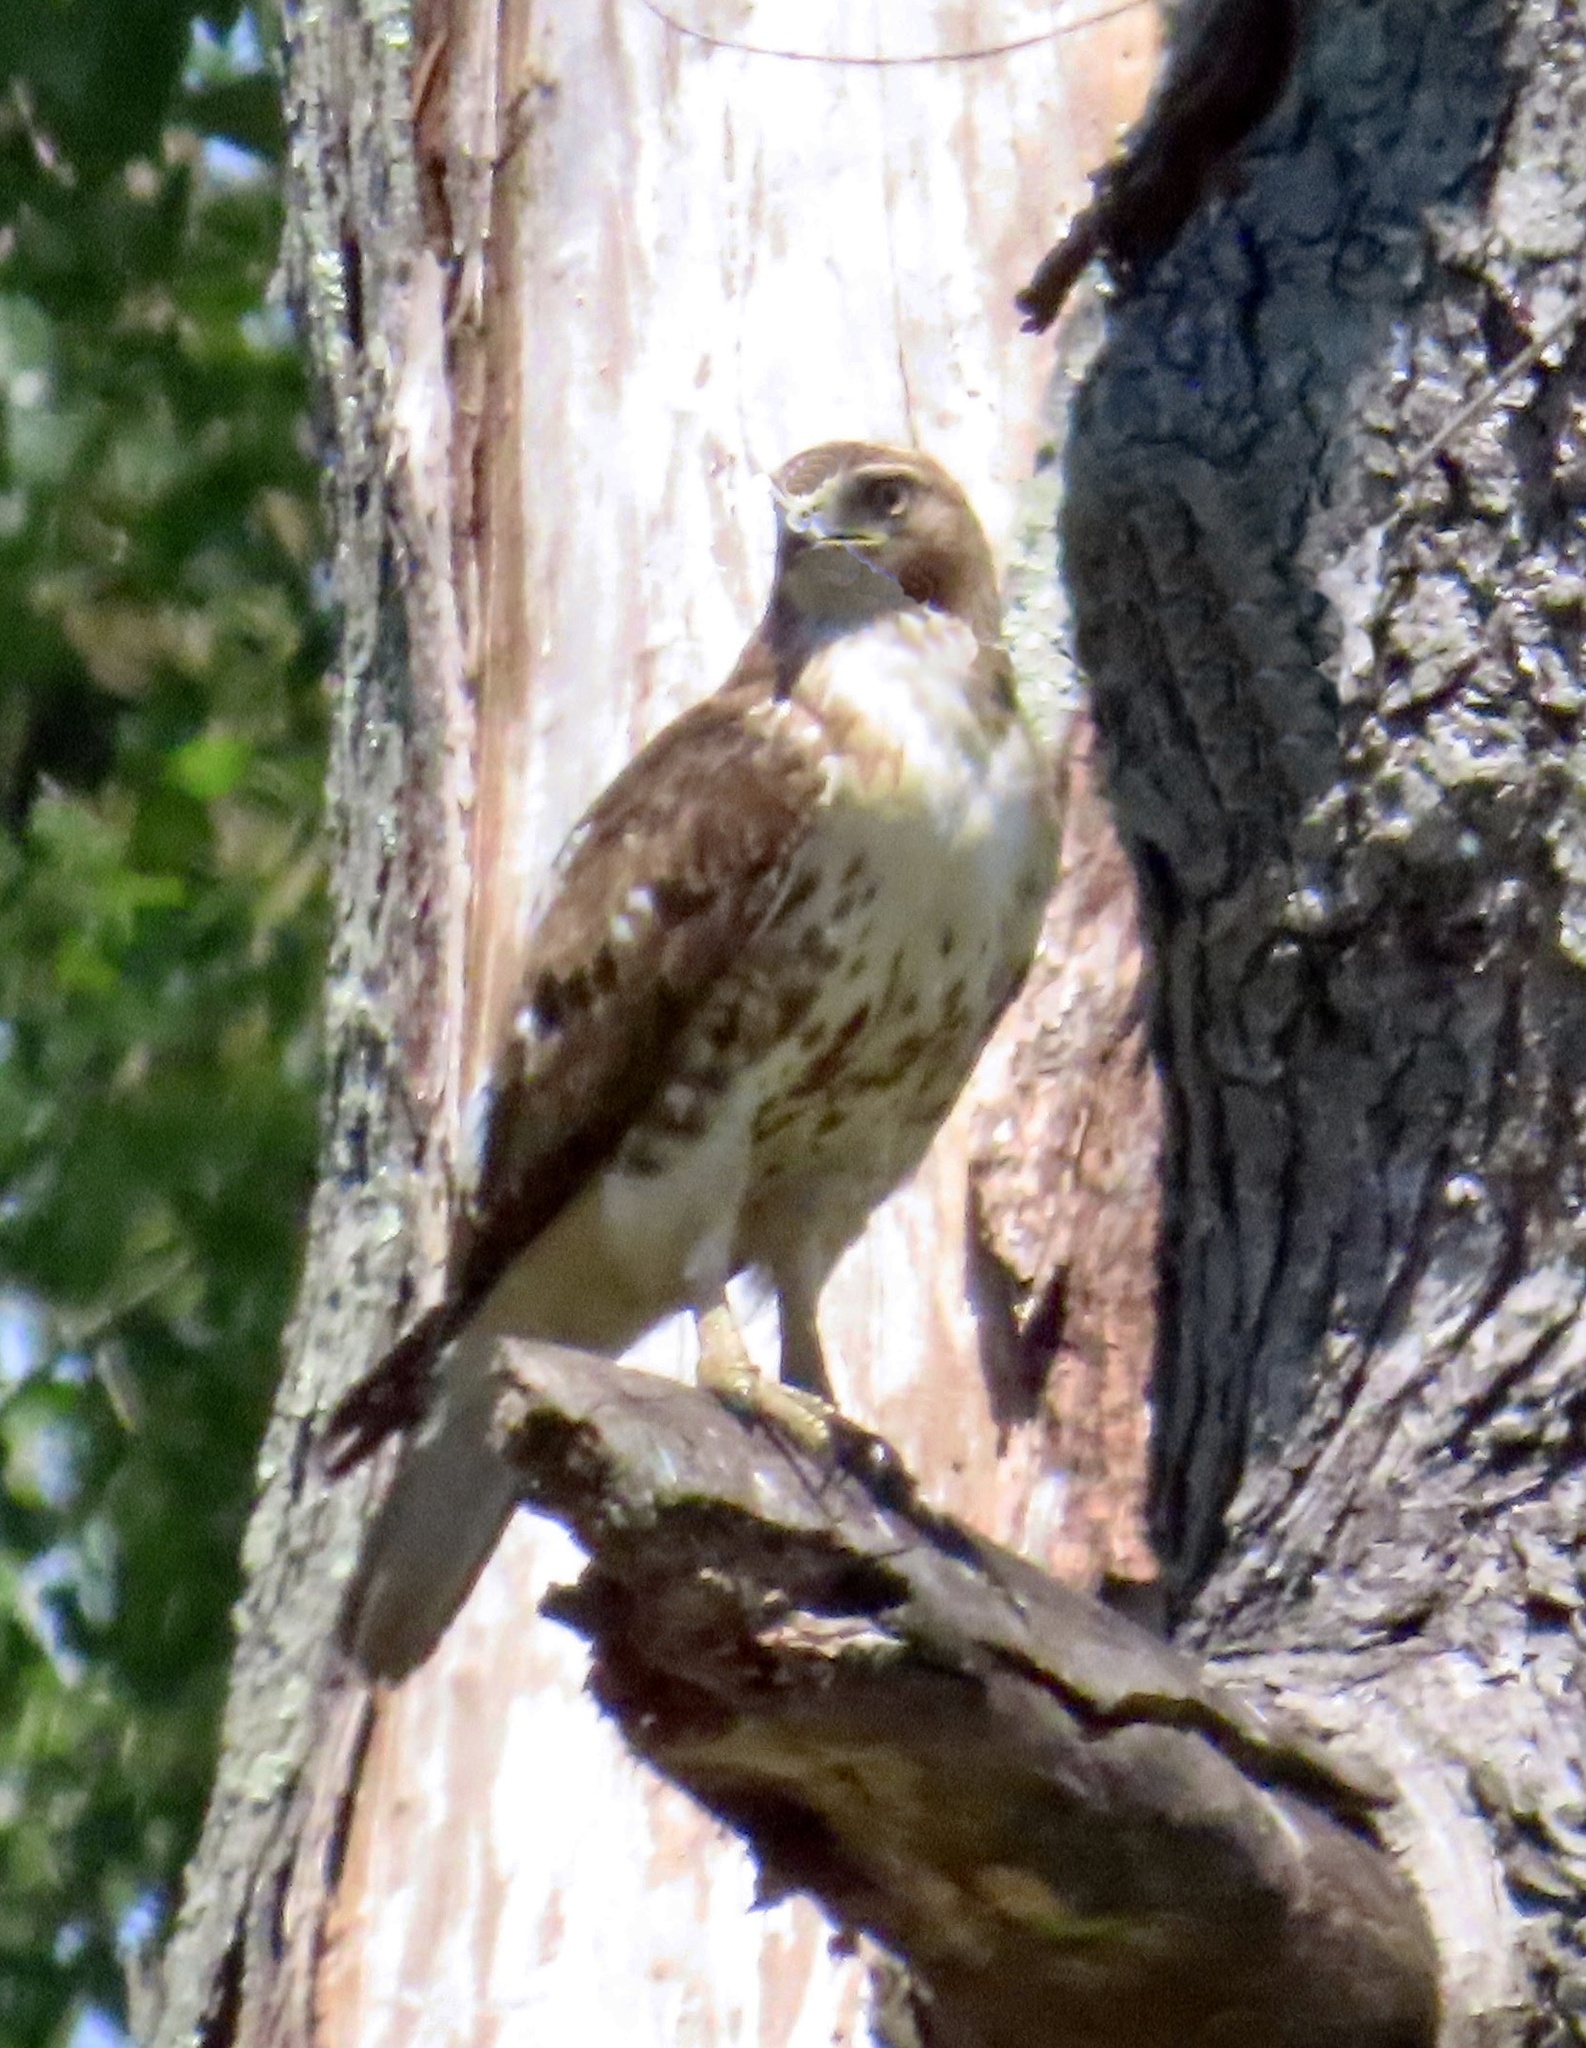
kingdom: Animalia
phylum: Chordata
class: Aves
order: Accipitriformes
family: Accipitridae
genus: Buteo
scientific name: Buteo jamaicensis
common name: Red-tailed hawk
